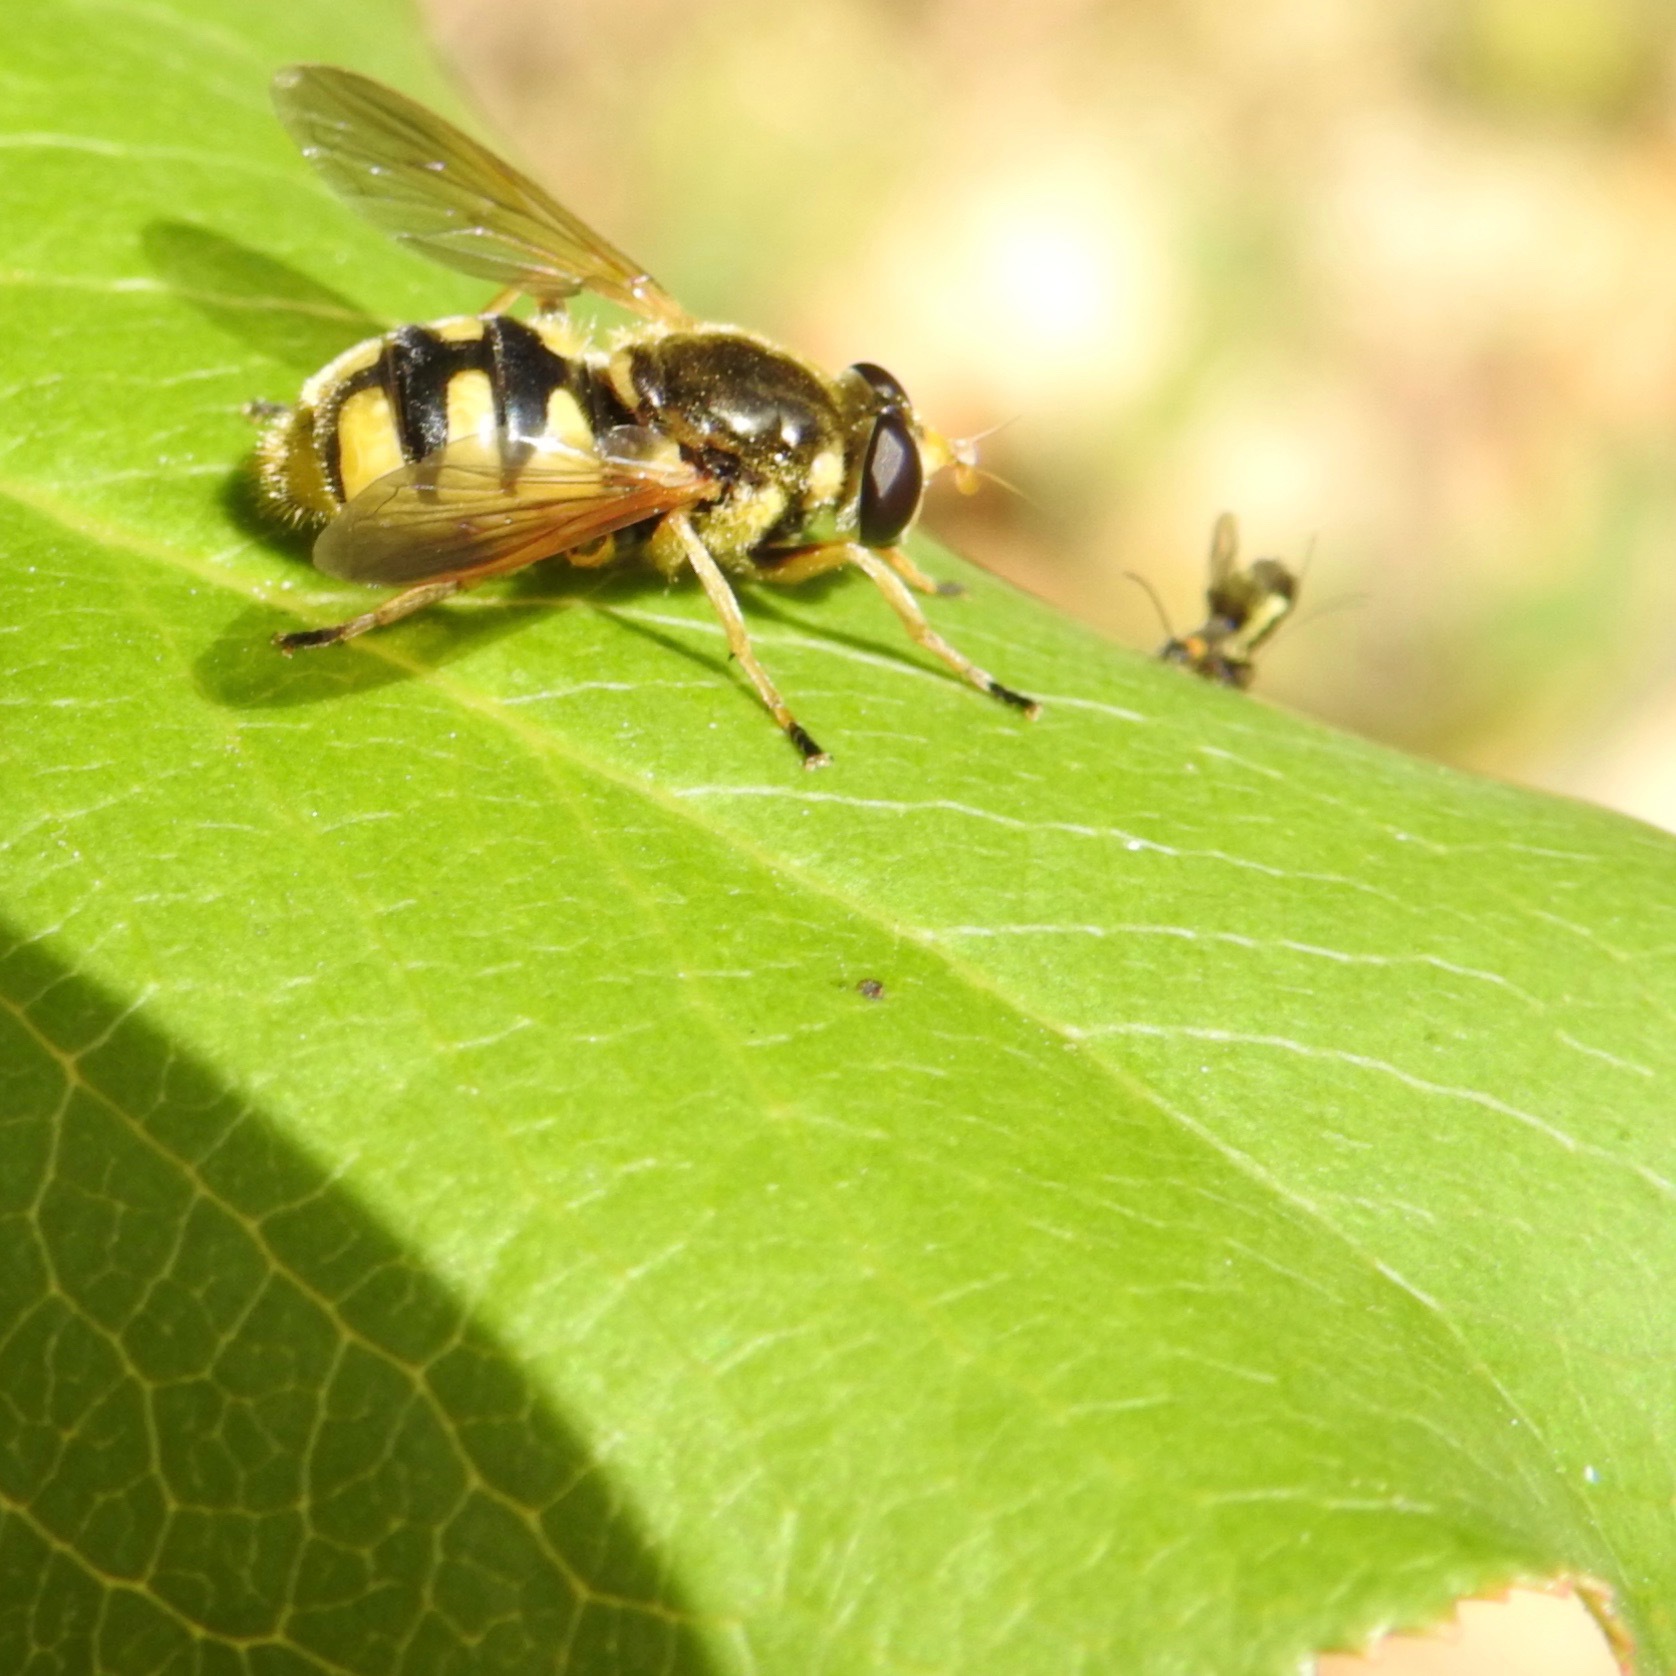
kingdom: Animalia
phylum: Arthropoda
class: Insecta
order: Diptera
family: Syrphidae
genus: Blera
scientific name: Blera humeralis
